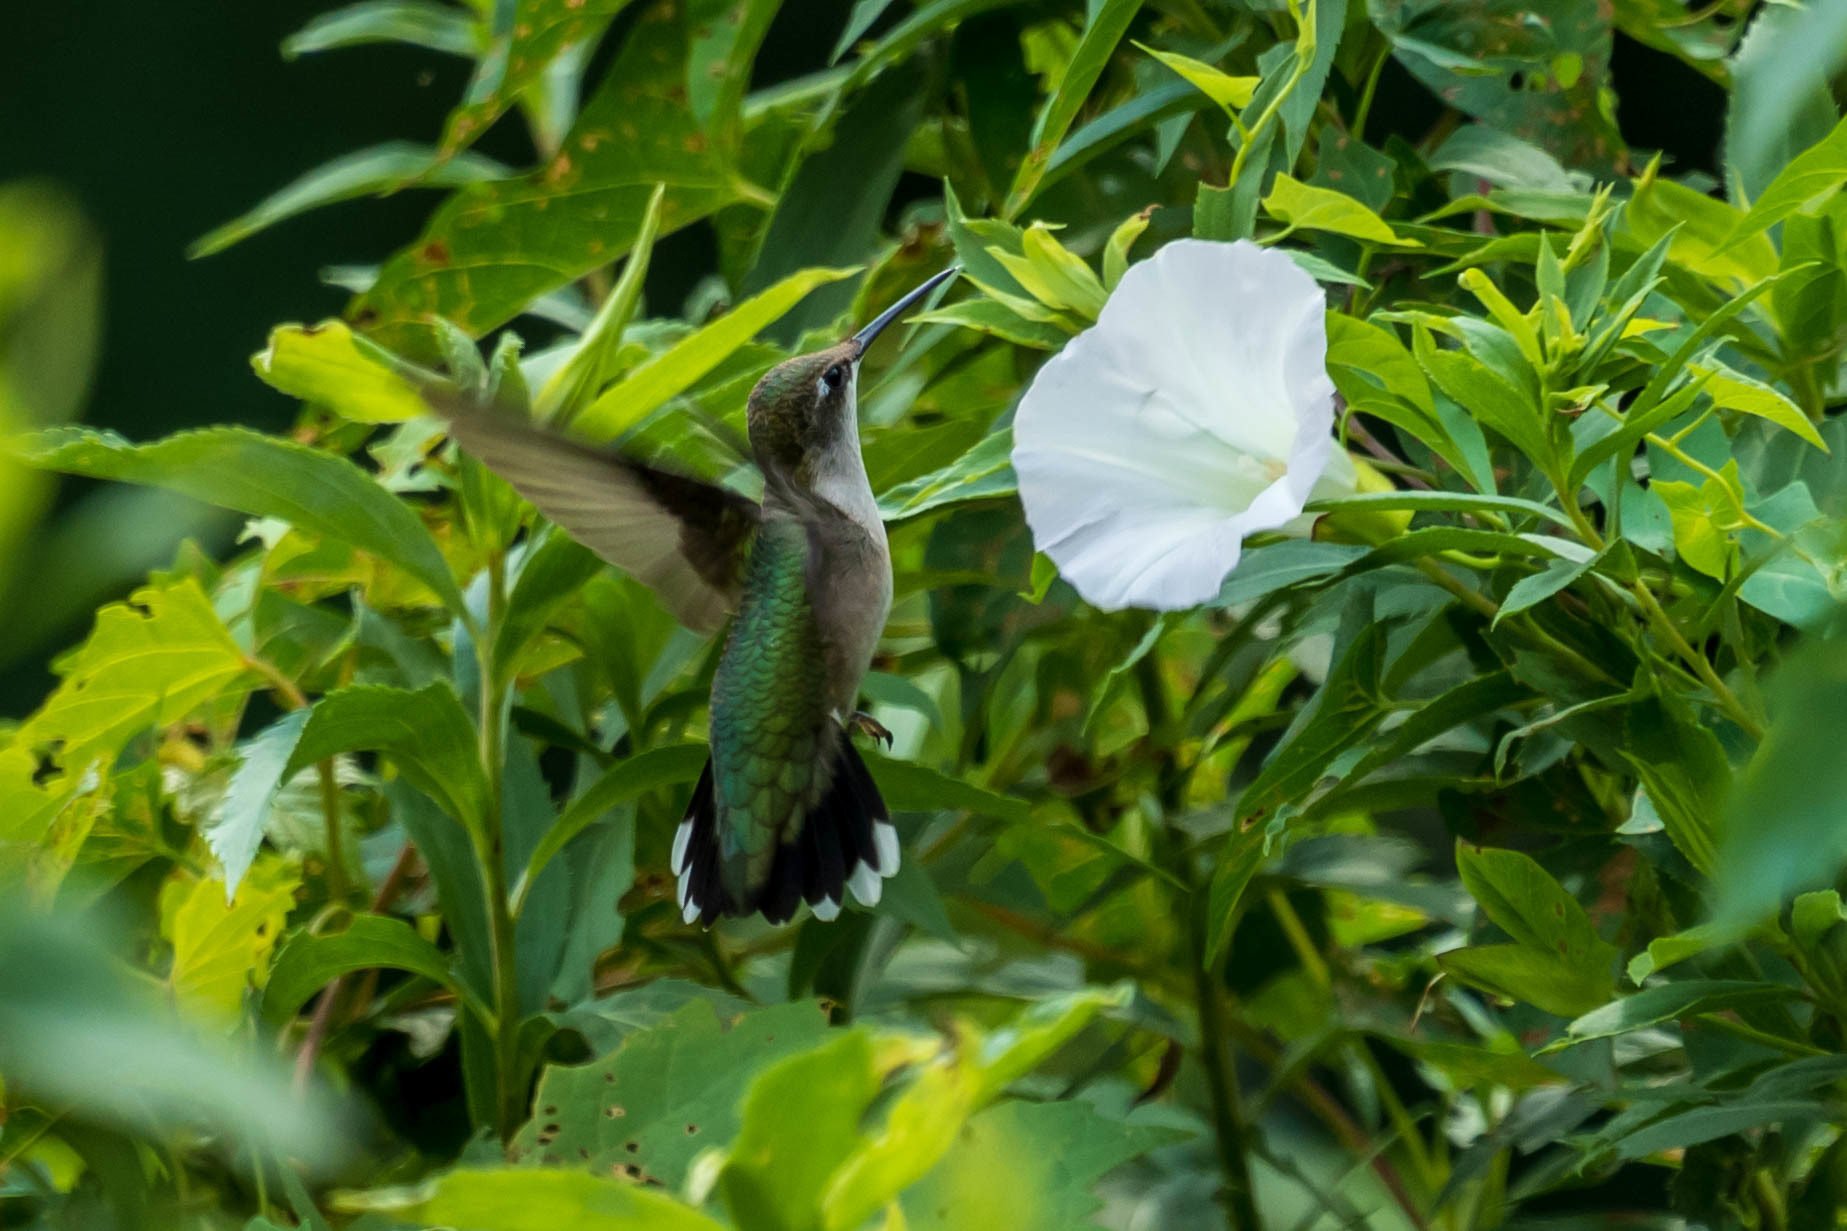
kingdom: Animalia
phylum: Chordata
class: Aves
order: Apodiformes
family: Trochilidae
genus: Archilochus
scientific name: Archilochus colubris
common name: Ruby-throated hummingbird
